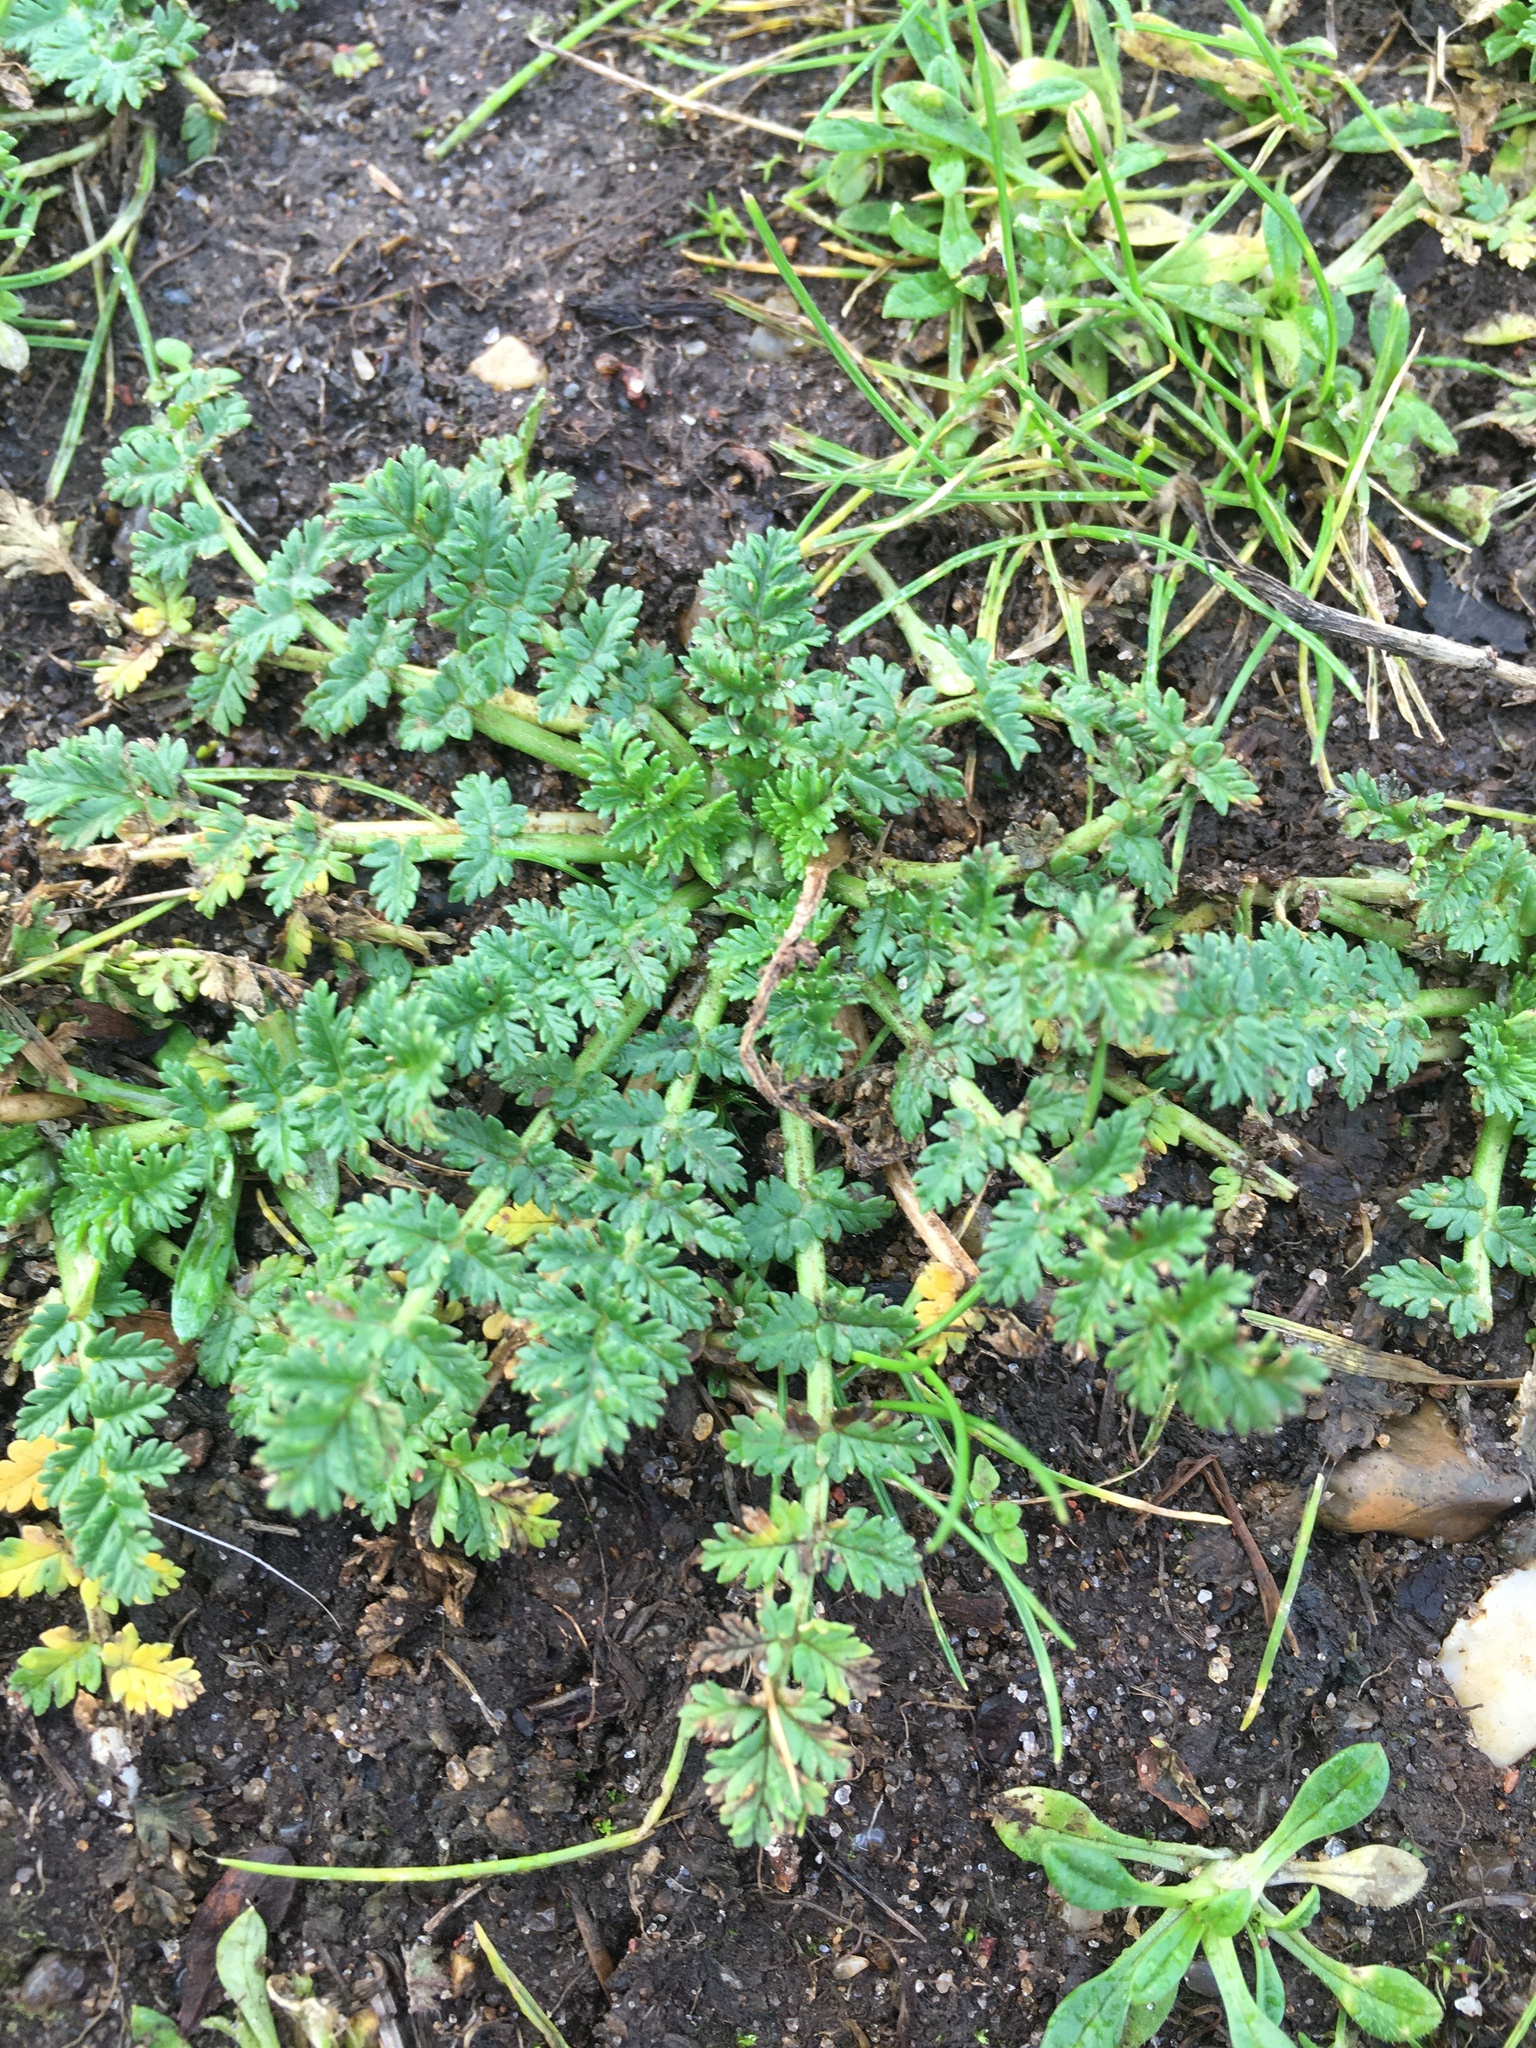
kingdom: Plantae
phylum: Tracheophyta
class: Magnoliopsida
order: Geraniales
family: Geraniaceae
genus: Erodium
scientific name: Erodium cicutarium
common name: Common stork's-bill
